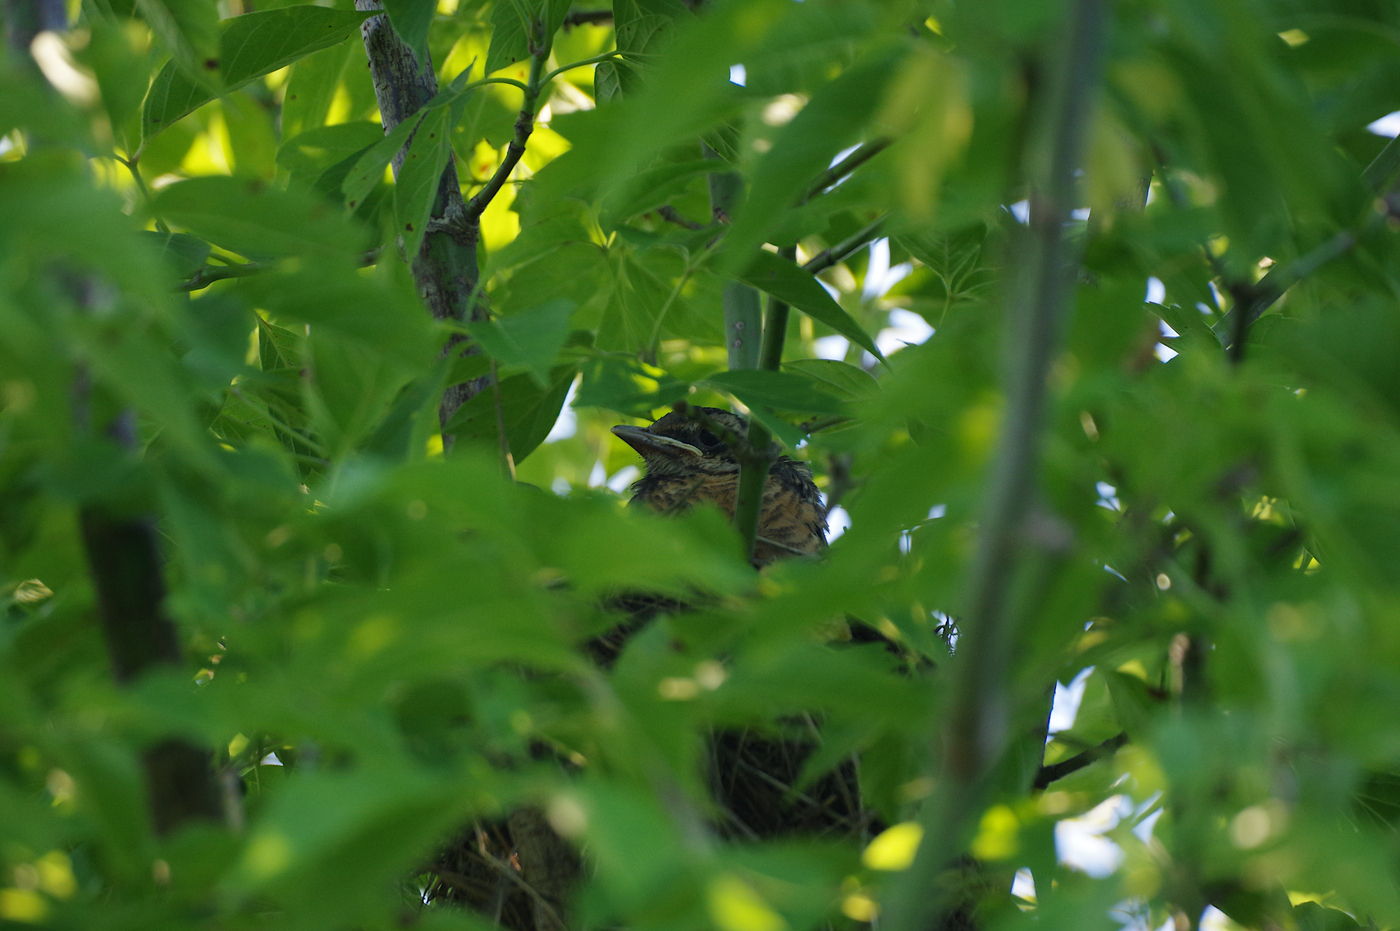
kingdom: Animalia
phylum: Chordata
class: Aves
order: Passeriformes
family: Turdidae
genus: Turdus
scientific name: Turdus migratorius
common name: American robin
